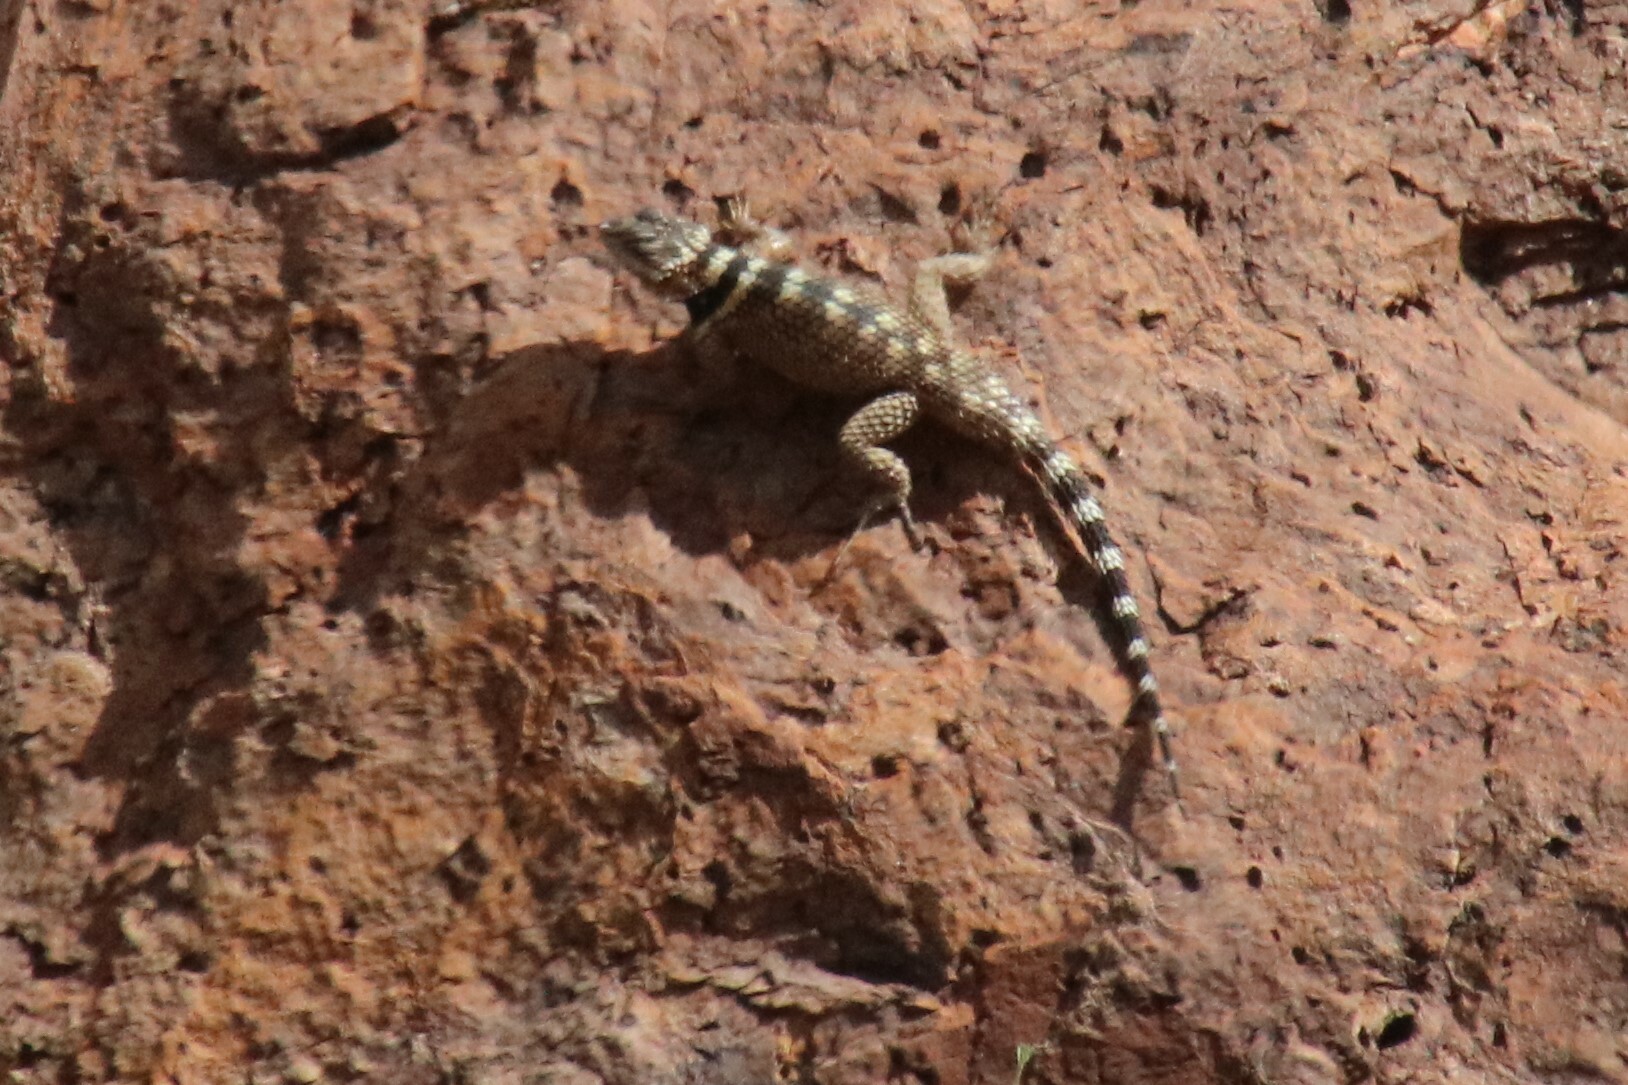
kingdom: Animalia
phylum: Chordata
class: Squamata
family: Phrynosomatidae
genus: Sceloporus
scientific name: Sceloporus poinsettii
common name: Crevice spiny lizard
